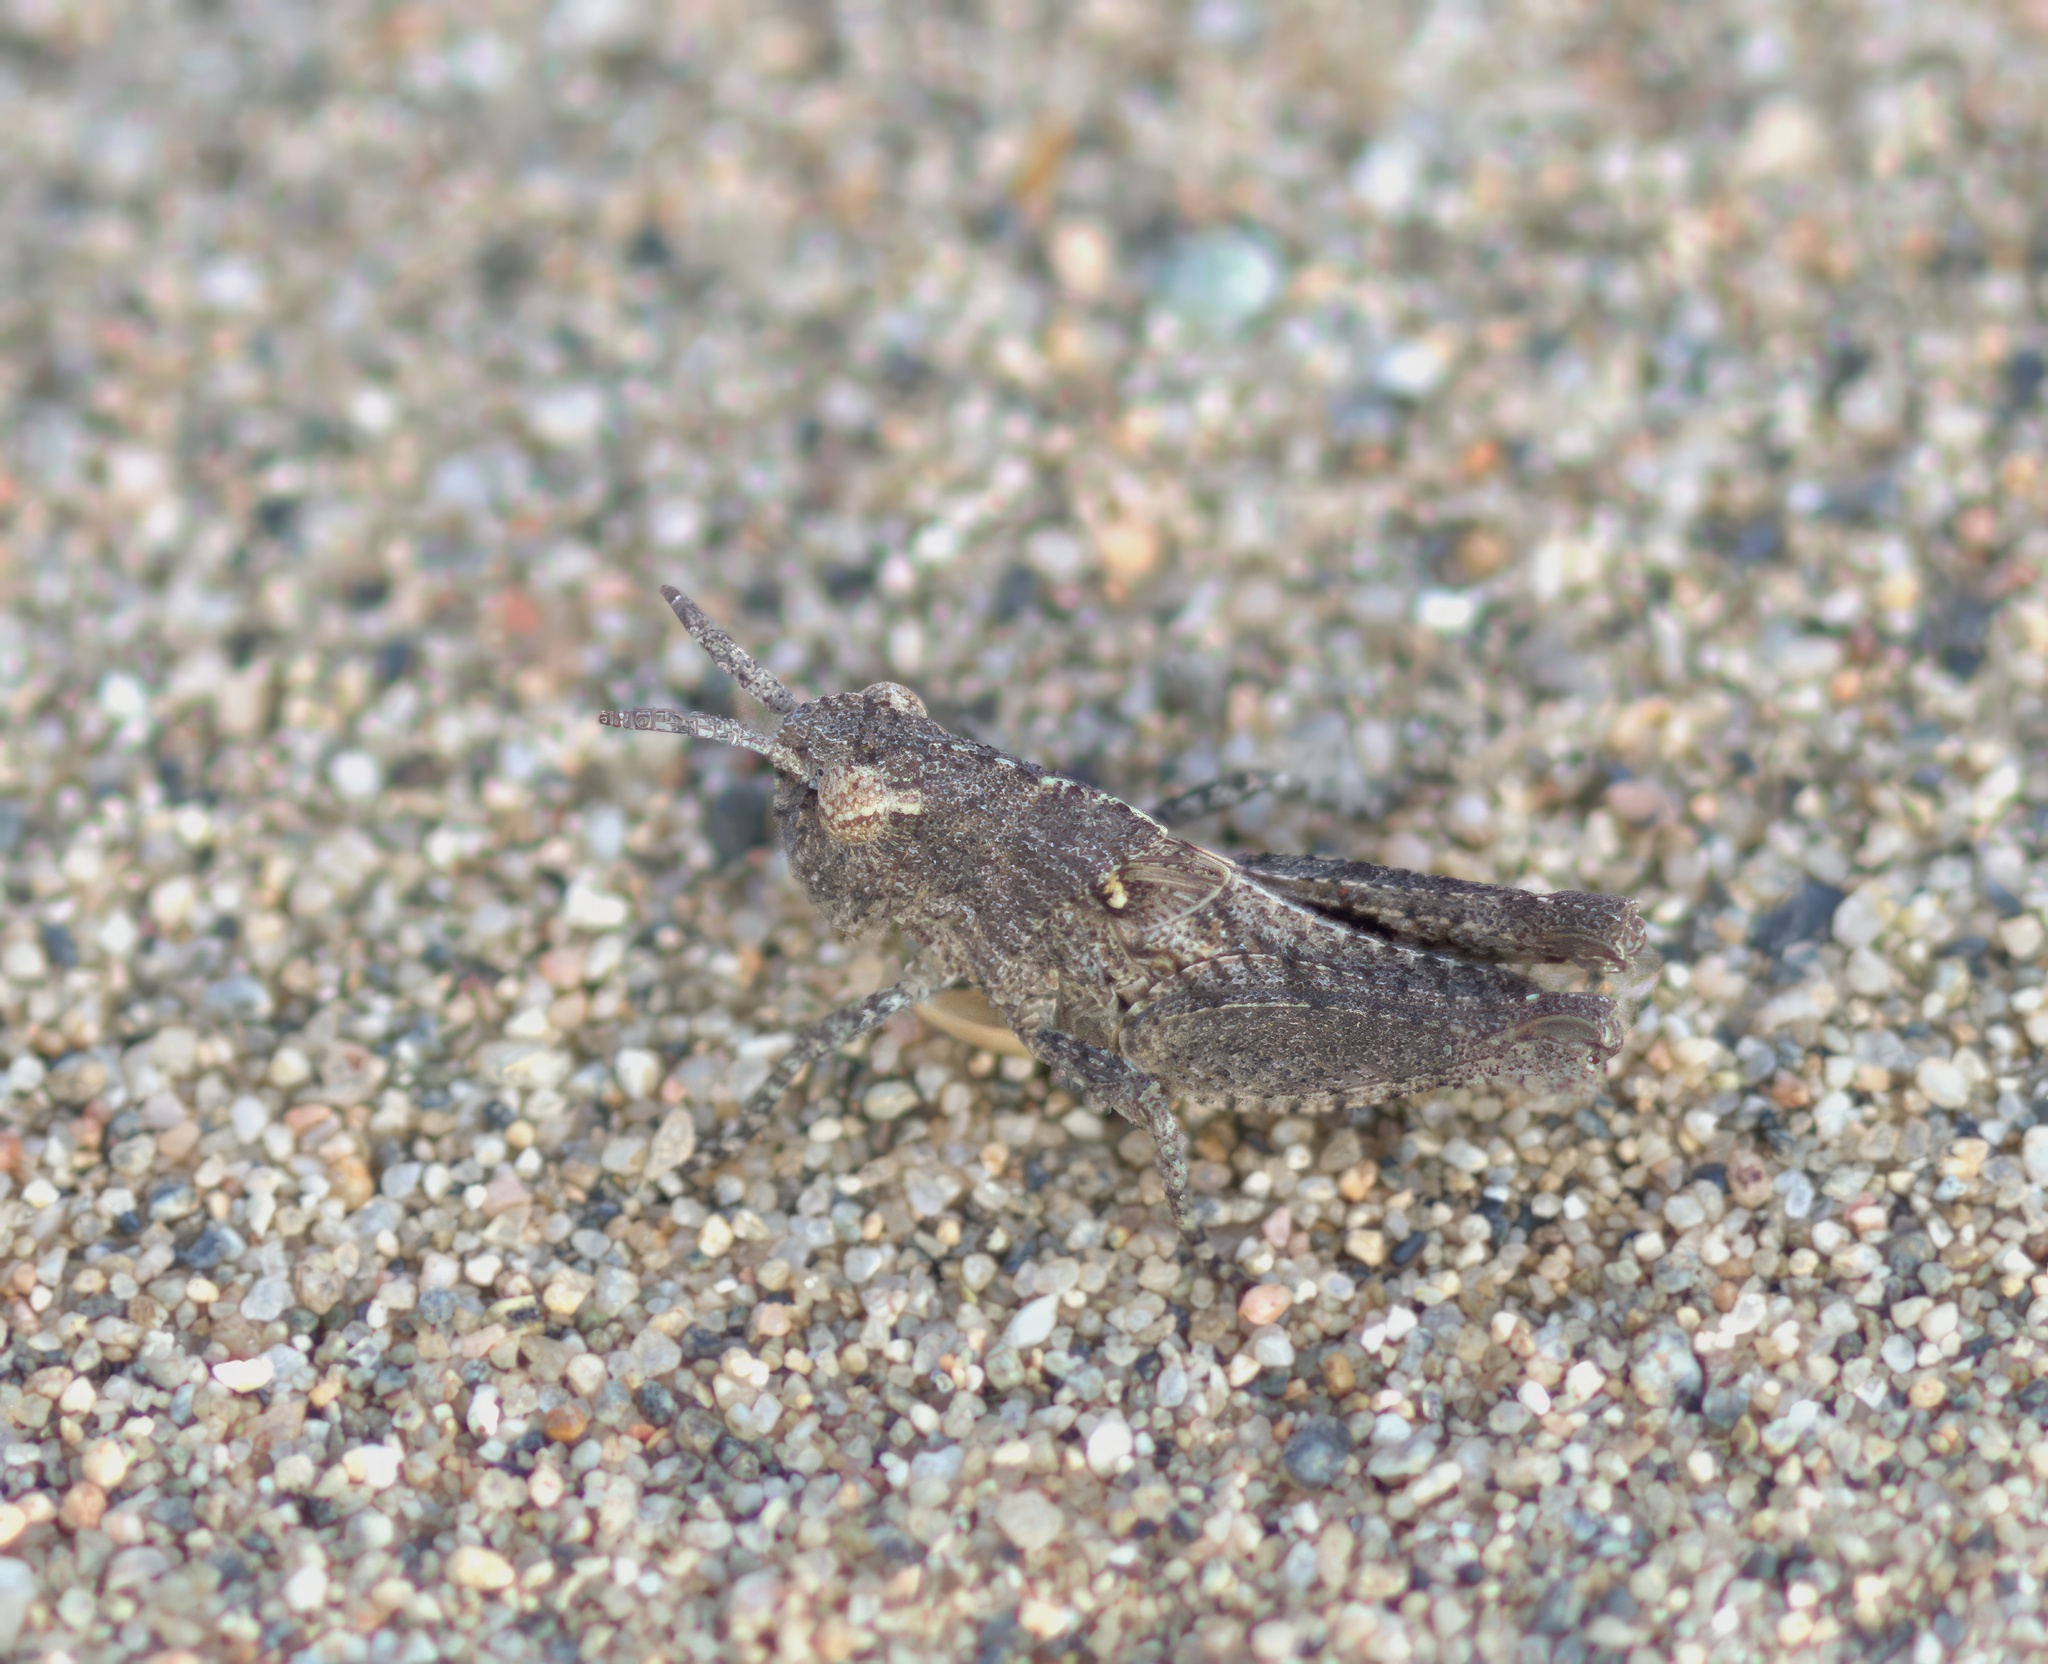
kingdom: Animalia
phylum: Arthropoda
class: Insecta
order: Orthoptera
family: Acrididae
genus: Chimarocephala
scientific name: Chimarocephala pacifica
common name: Painted meadow grasshopper
